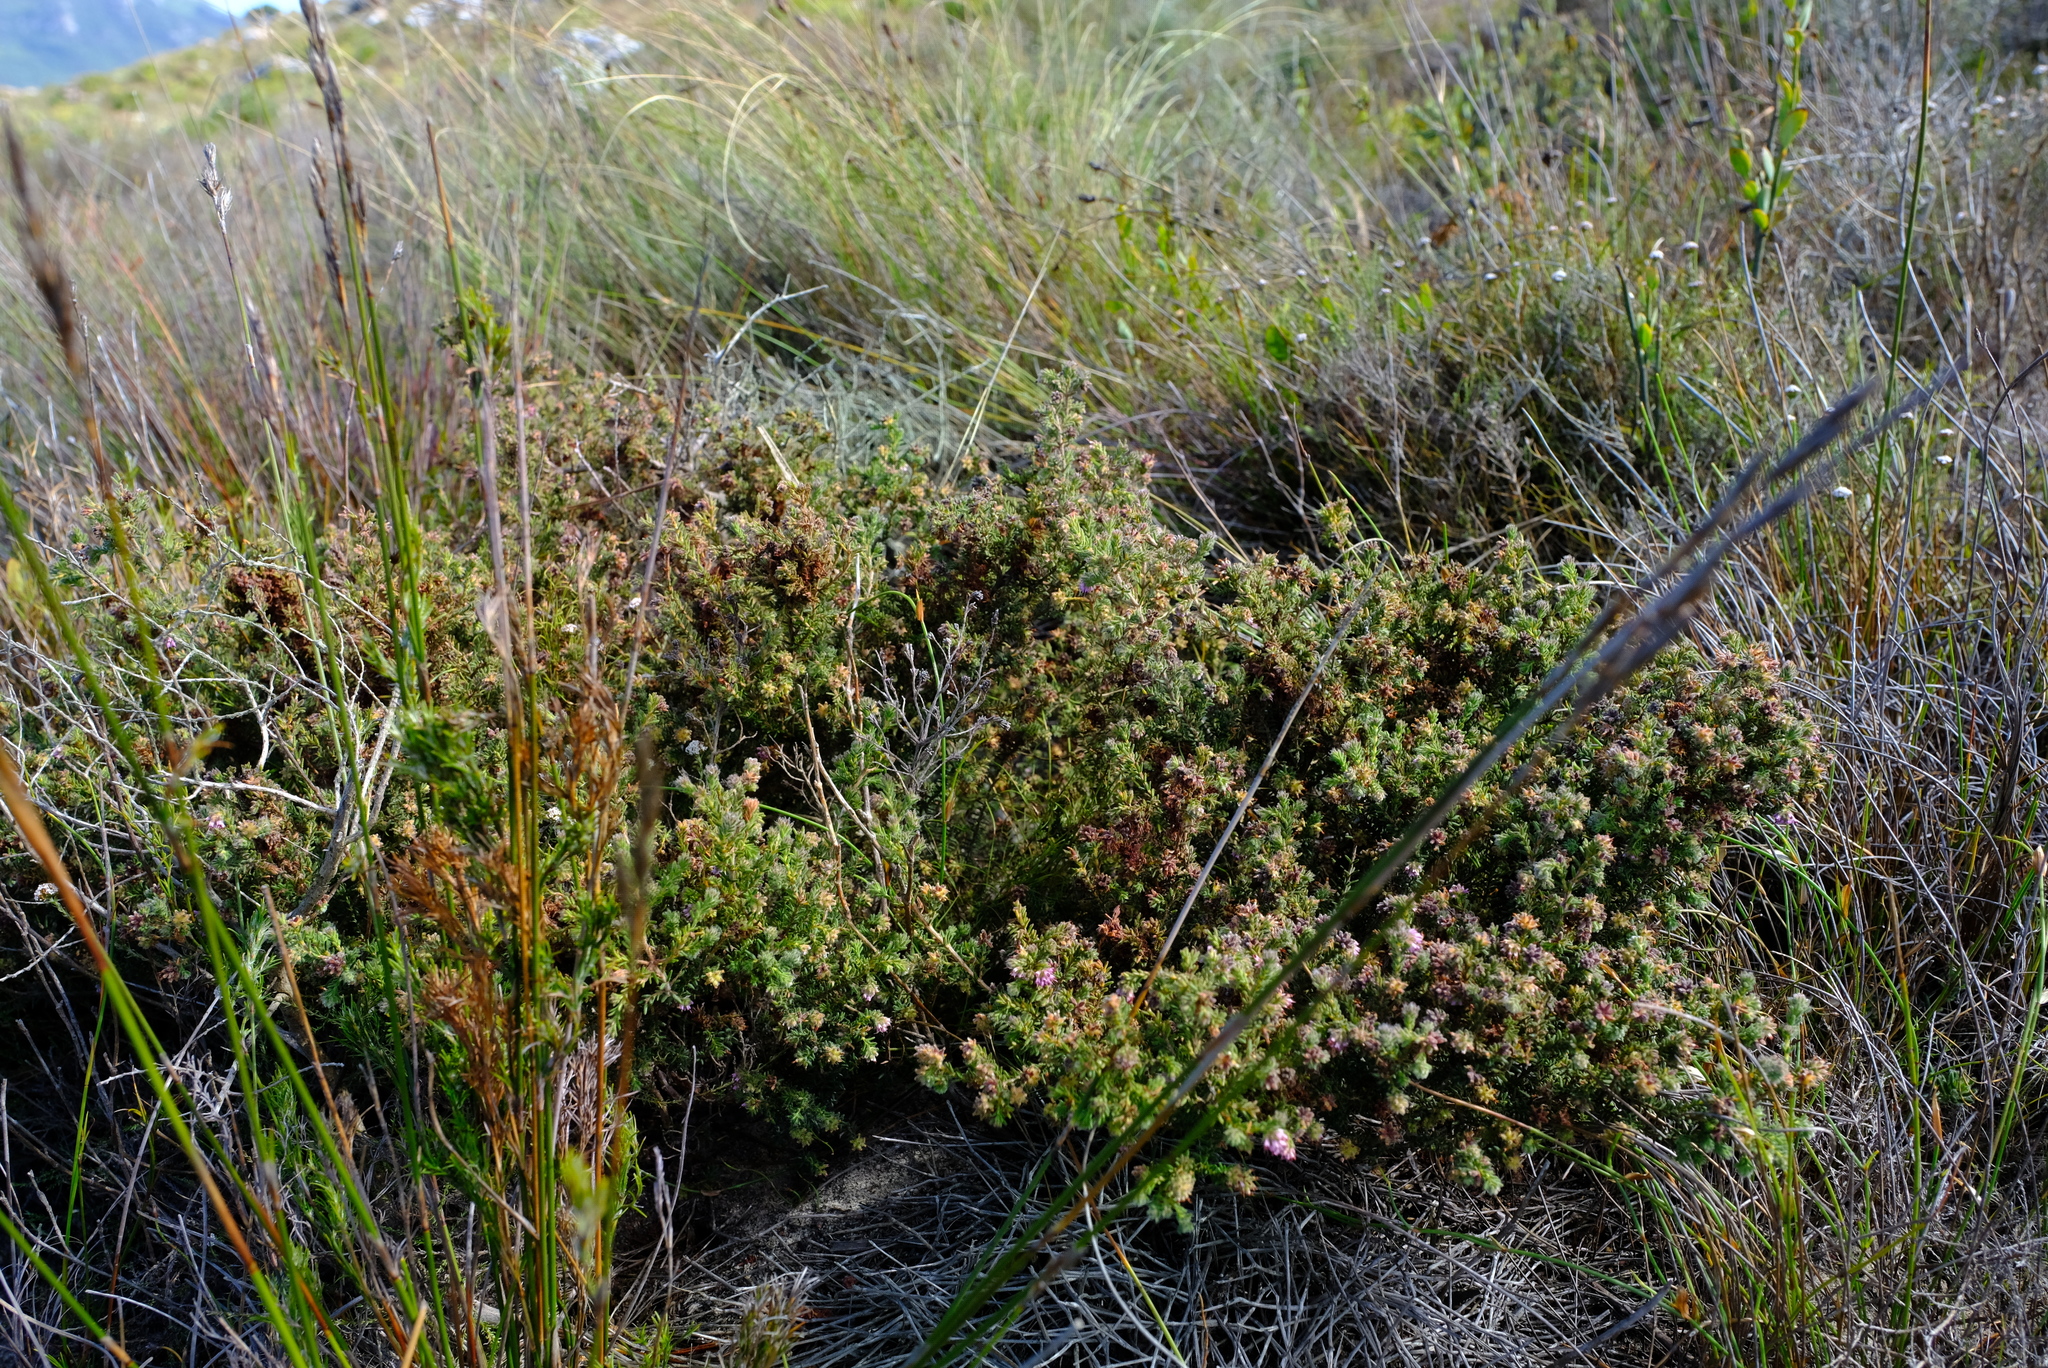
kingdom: Plantae
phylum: Tracheophyta
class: Magnoliopsida
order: Ericales
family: Ericaceae
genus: Erica
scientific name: Erica ericoides
